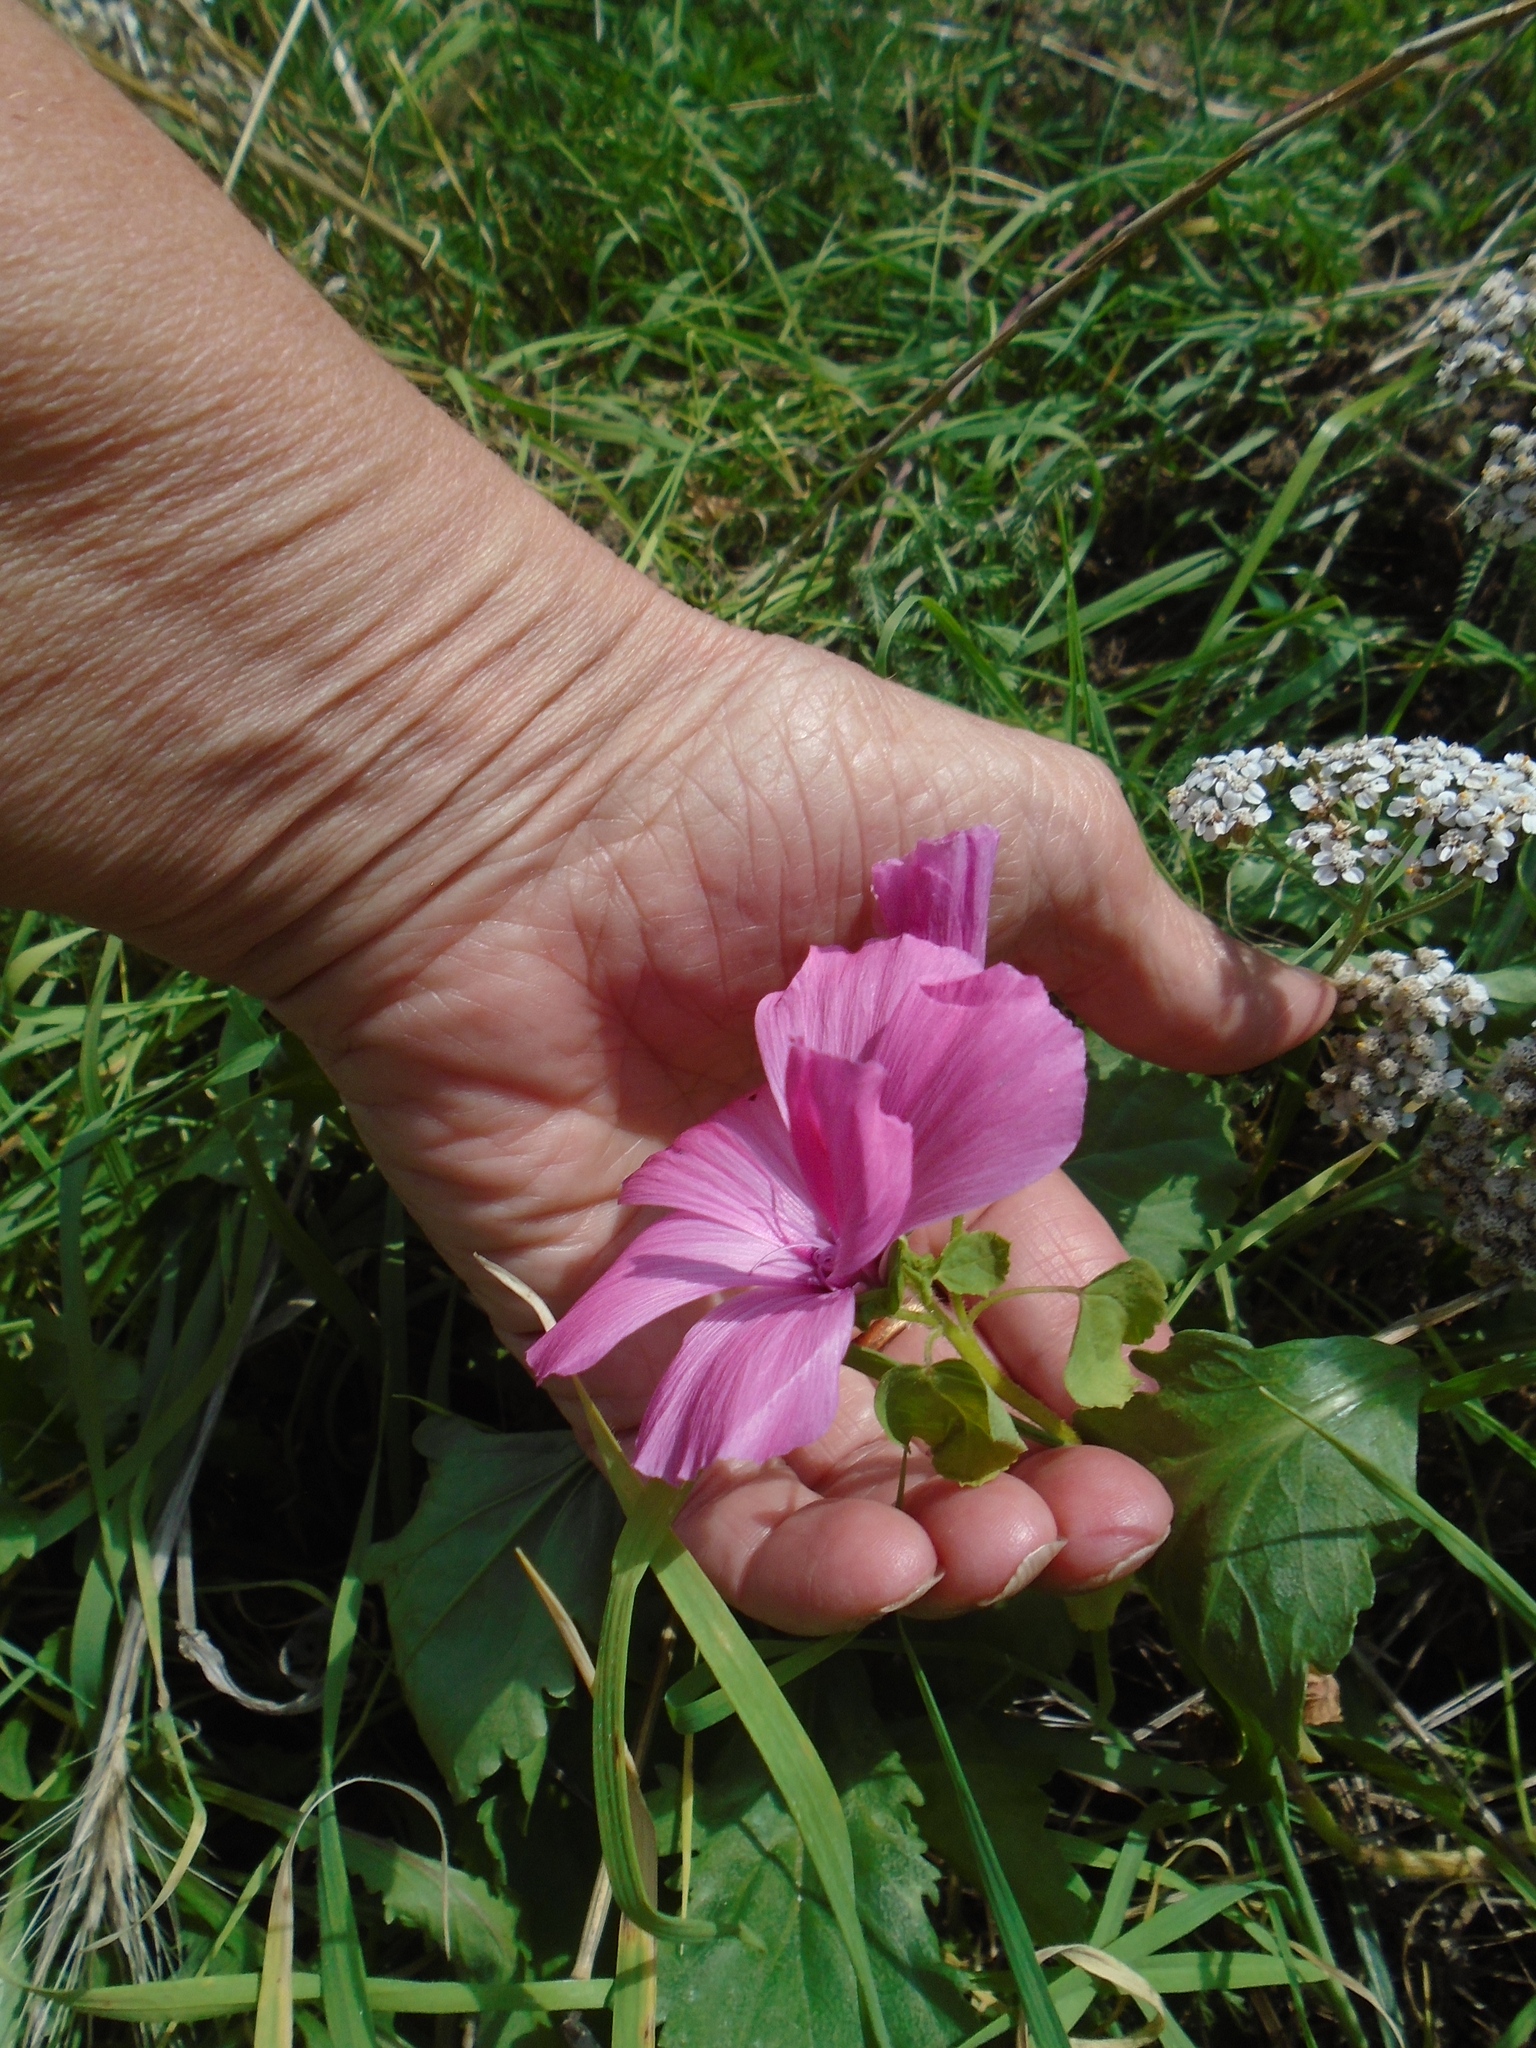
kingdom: Plantae
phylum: Tracheophyta
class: Magnoliopsida
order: Malvales
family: Malvaceae
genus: Malva
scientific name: Malva trimestris
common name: Royal mallow
